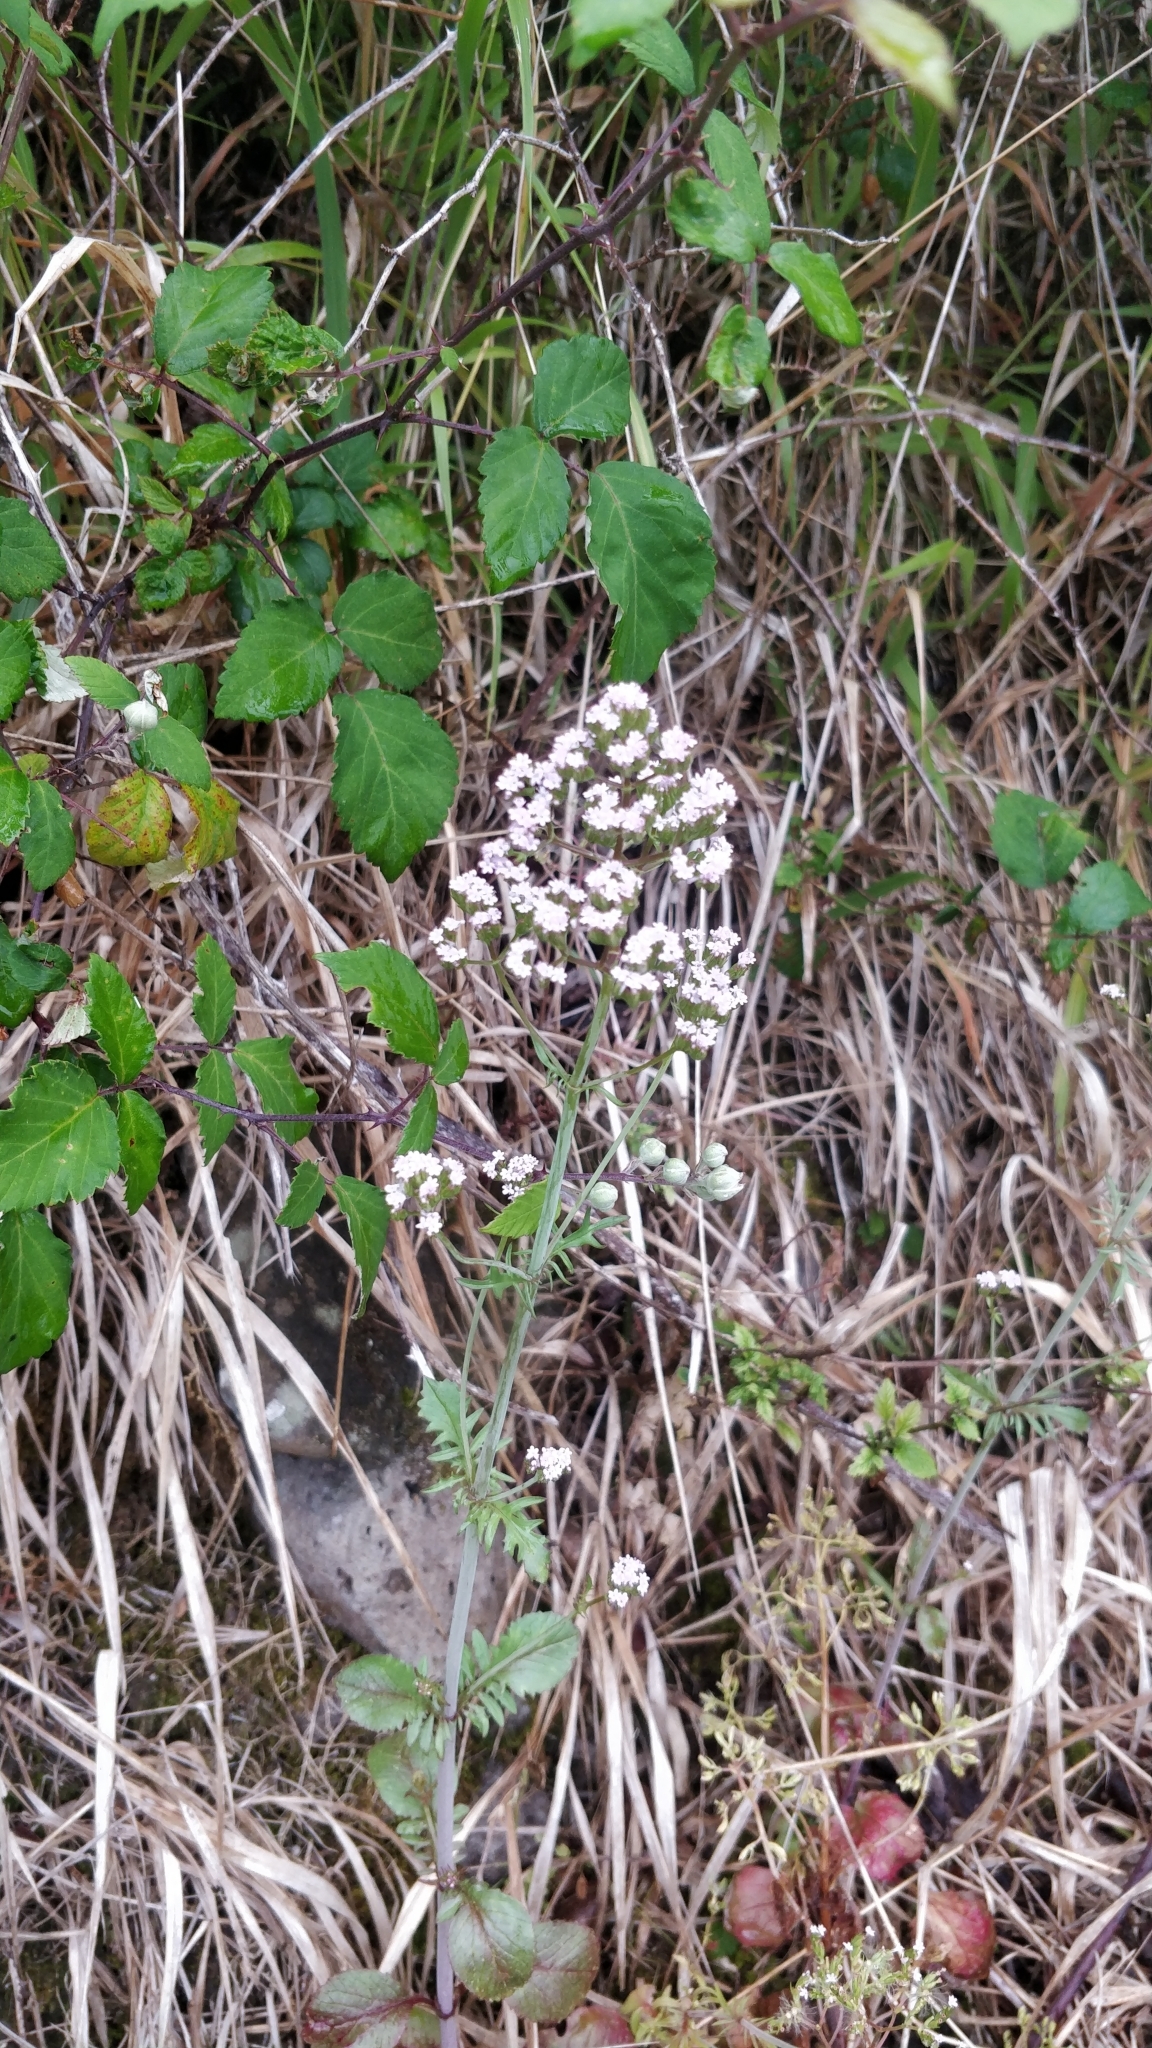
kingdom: Plantae
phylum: Tracheophyta
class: Magnoliopsida
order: Dipsacales
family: Caprifoliaceae
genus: Centranthus
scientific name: Centranthus calcitrapae
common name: Annual valerian
